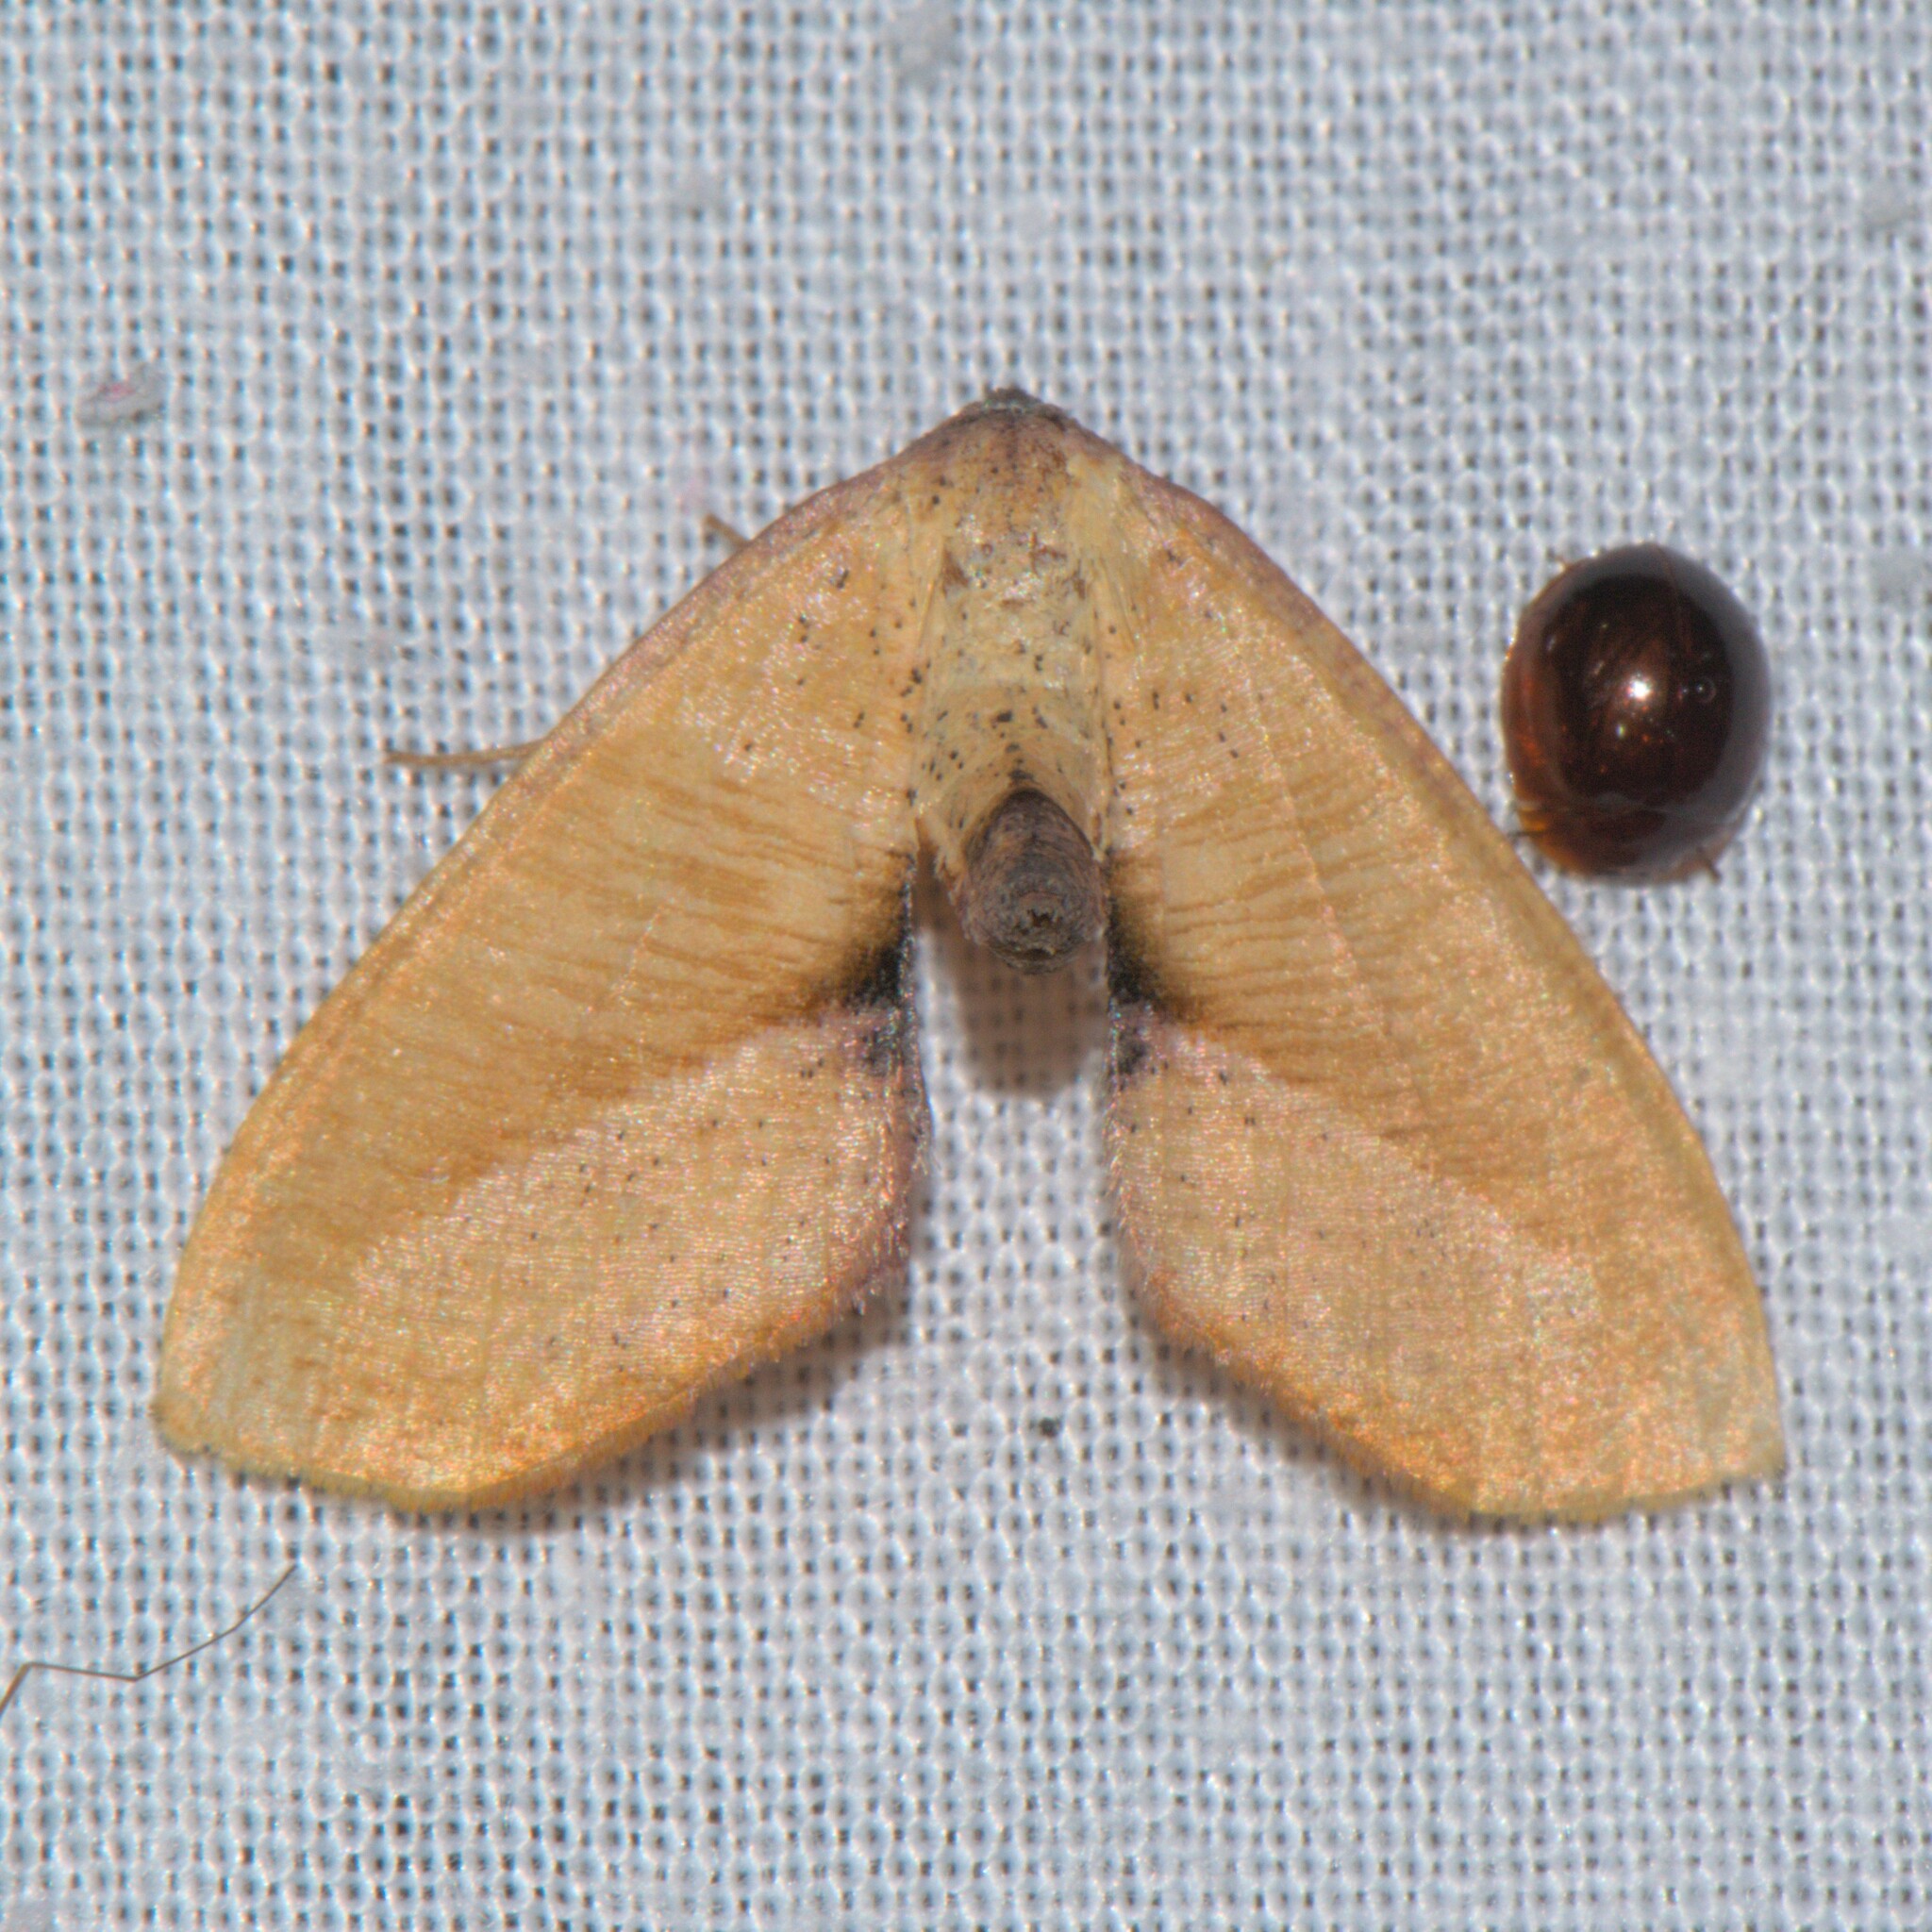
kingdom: Animalia
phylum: Arthropoda
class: Insecta
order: Lepidoptera
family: Geometridae
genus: Plagodis
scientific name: Plagodis inustaria
